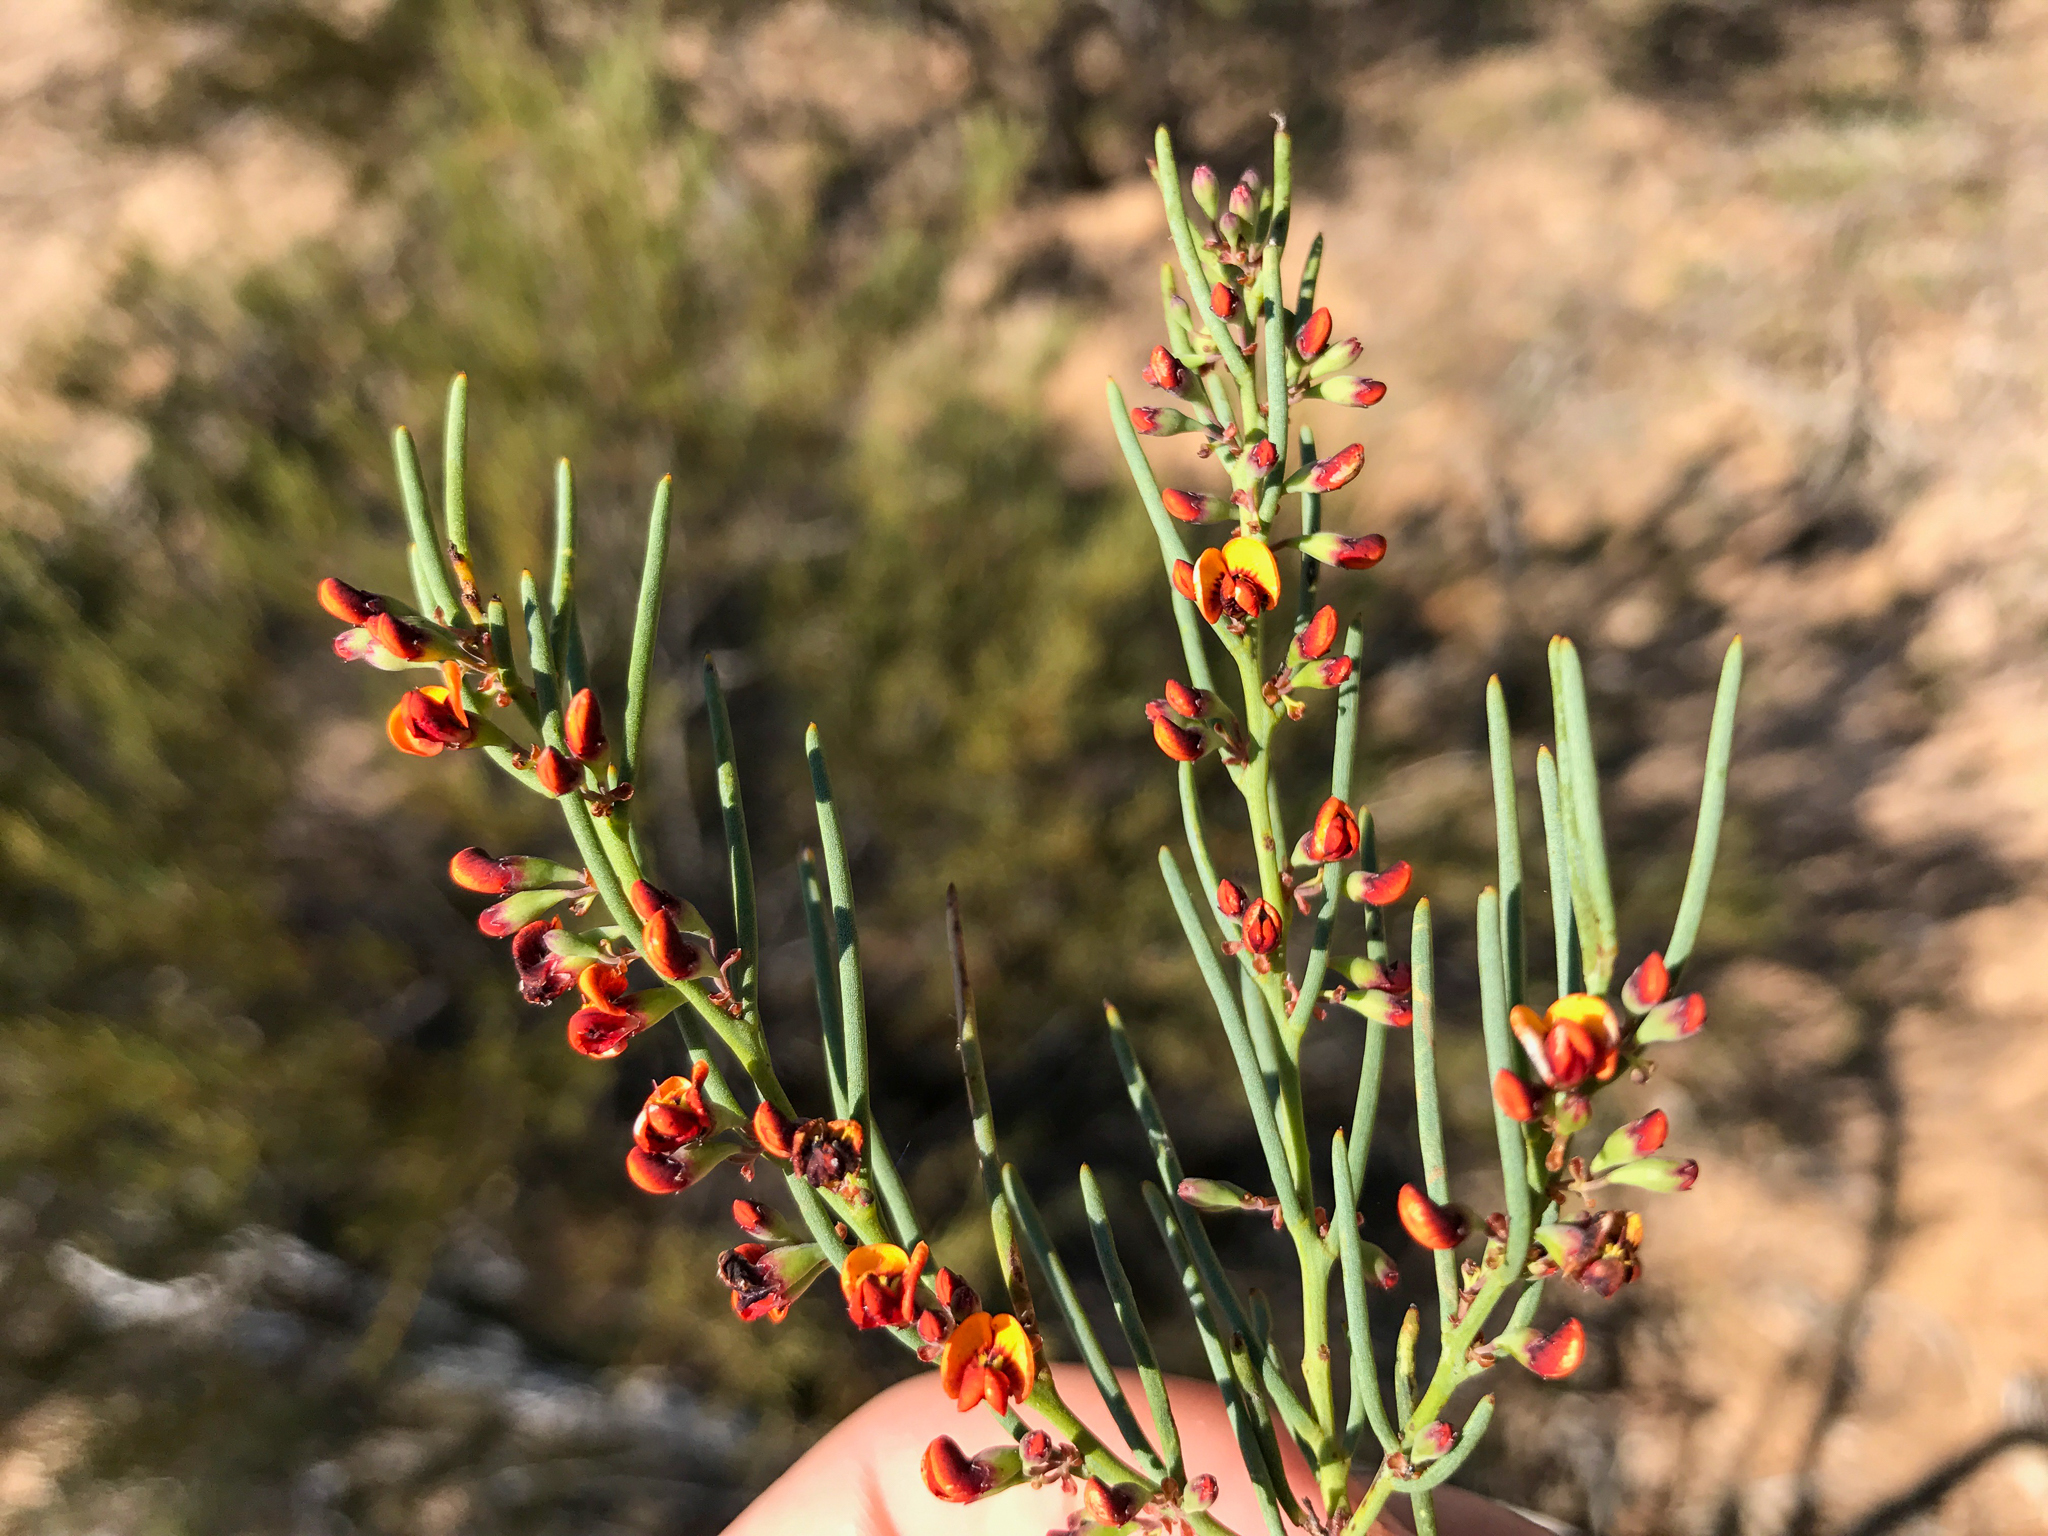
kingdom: Plantae
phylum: Tracheophyta
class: Magnoliopsida
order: Fabales
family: Fabaceae
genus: Daviesia
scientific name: Daviesia apiculata
